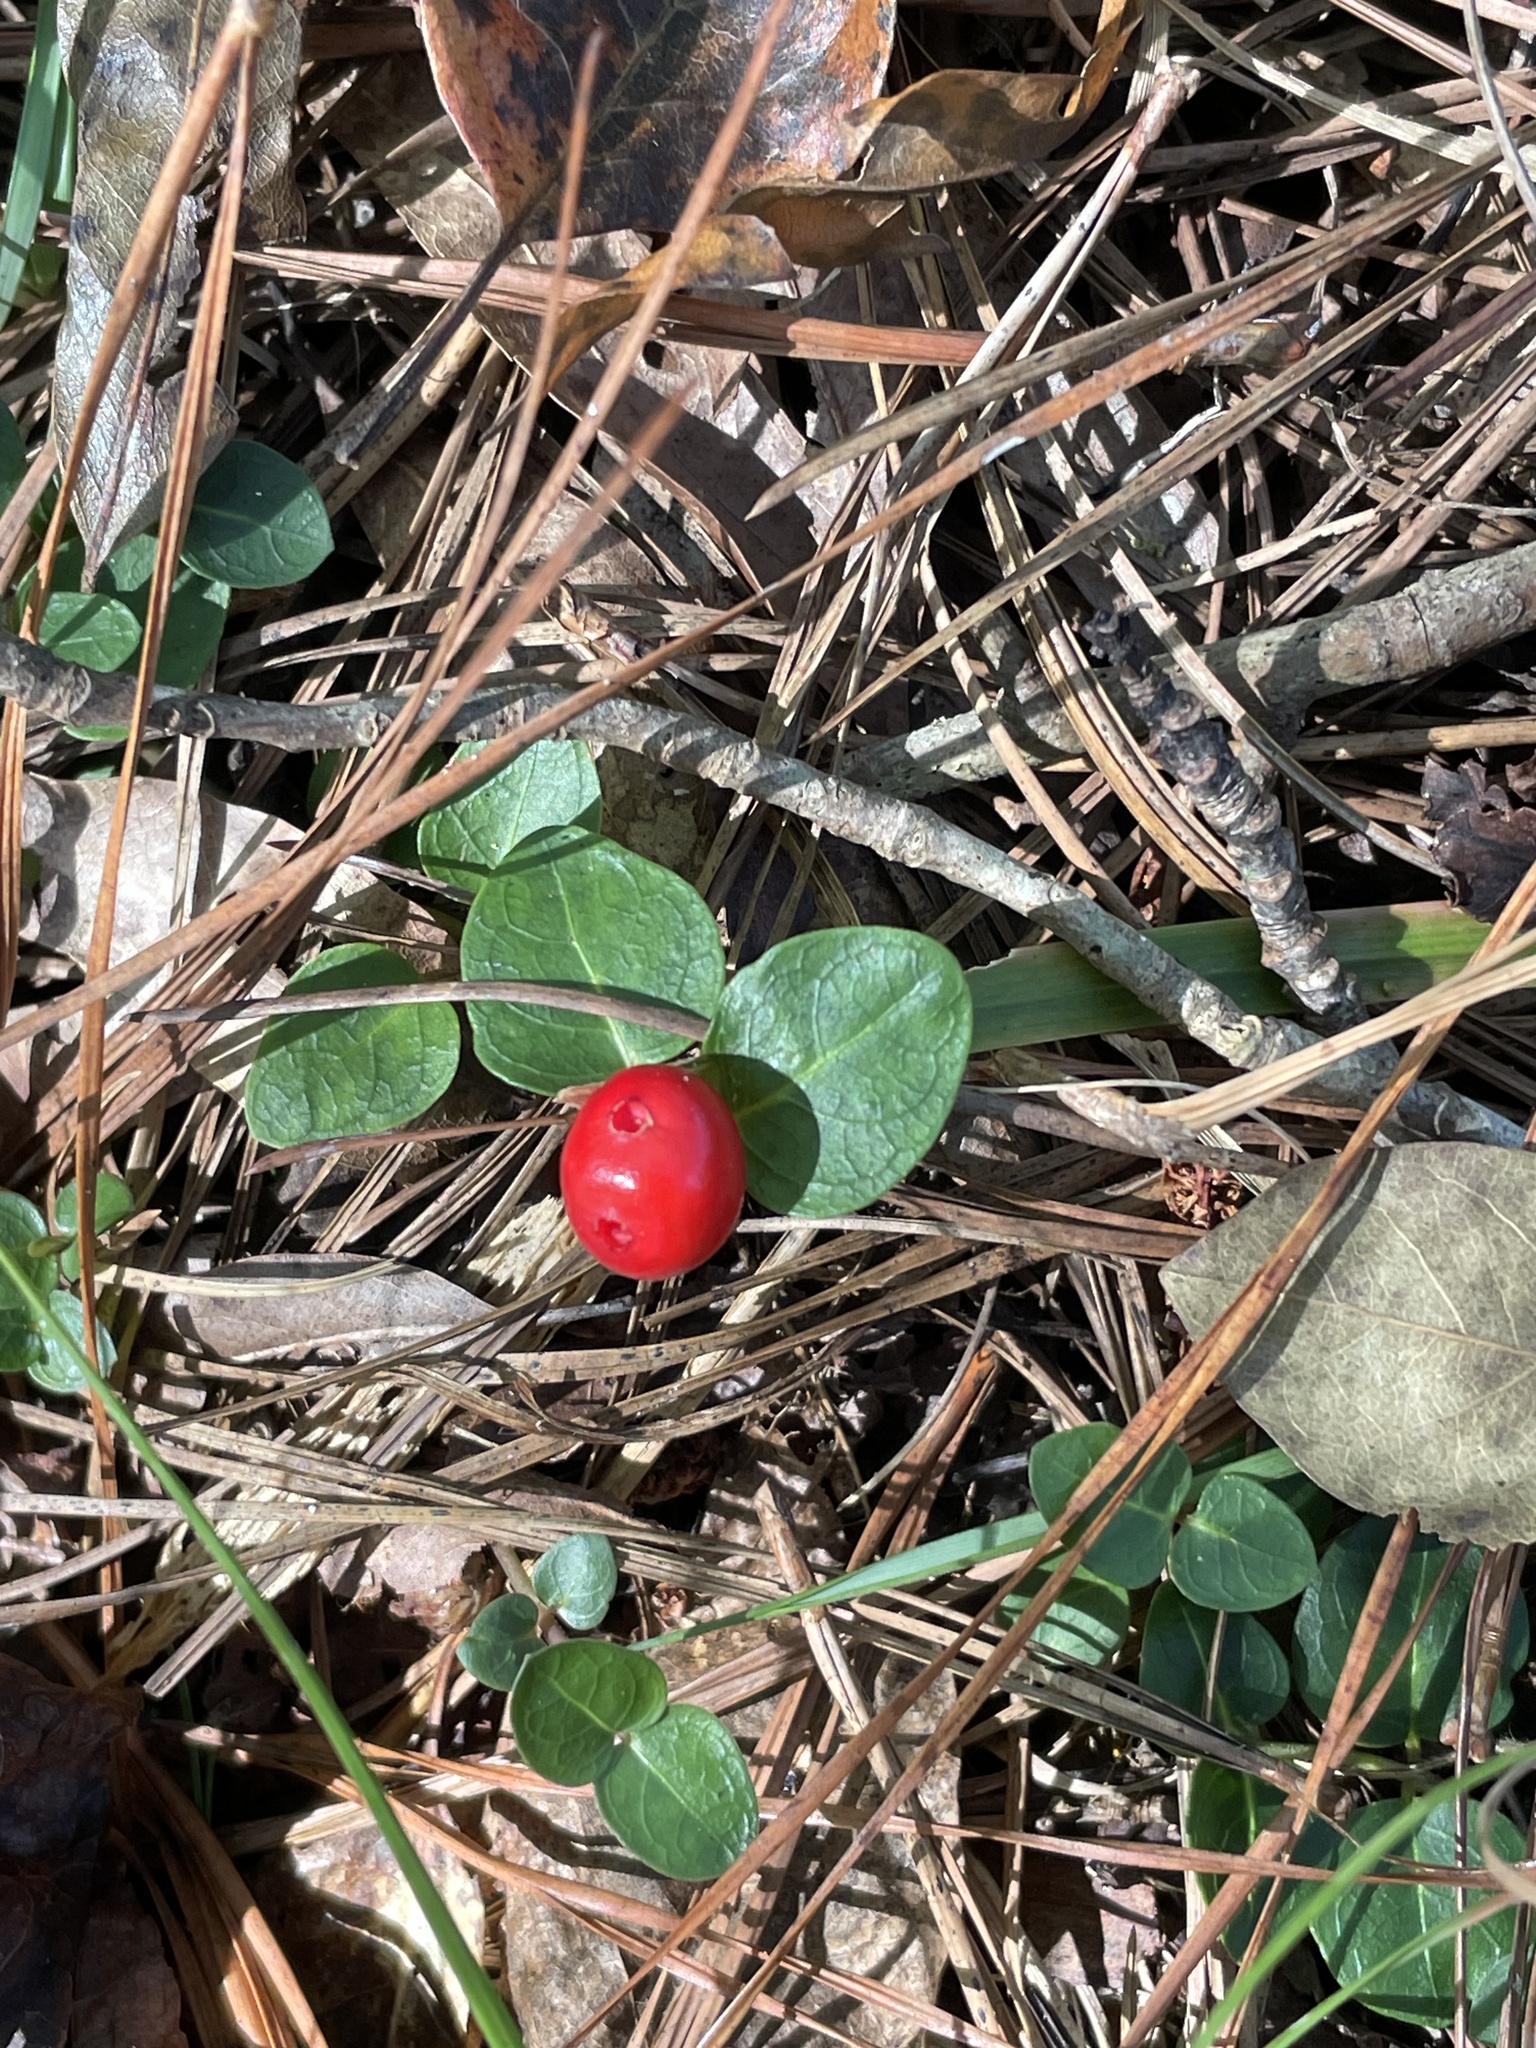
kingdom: Plantae
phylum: Tracheophyta
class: Magnoliopsida
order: Gentianales
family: Rubiaceae
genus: Mitchella
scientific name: Mitchella repens
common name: Partridge-berry
